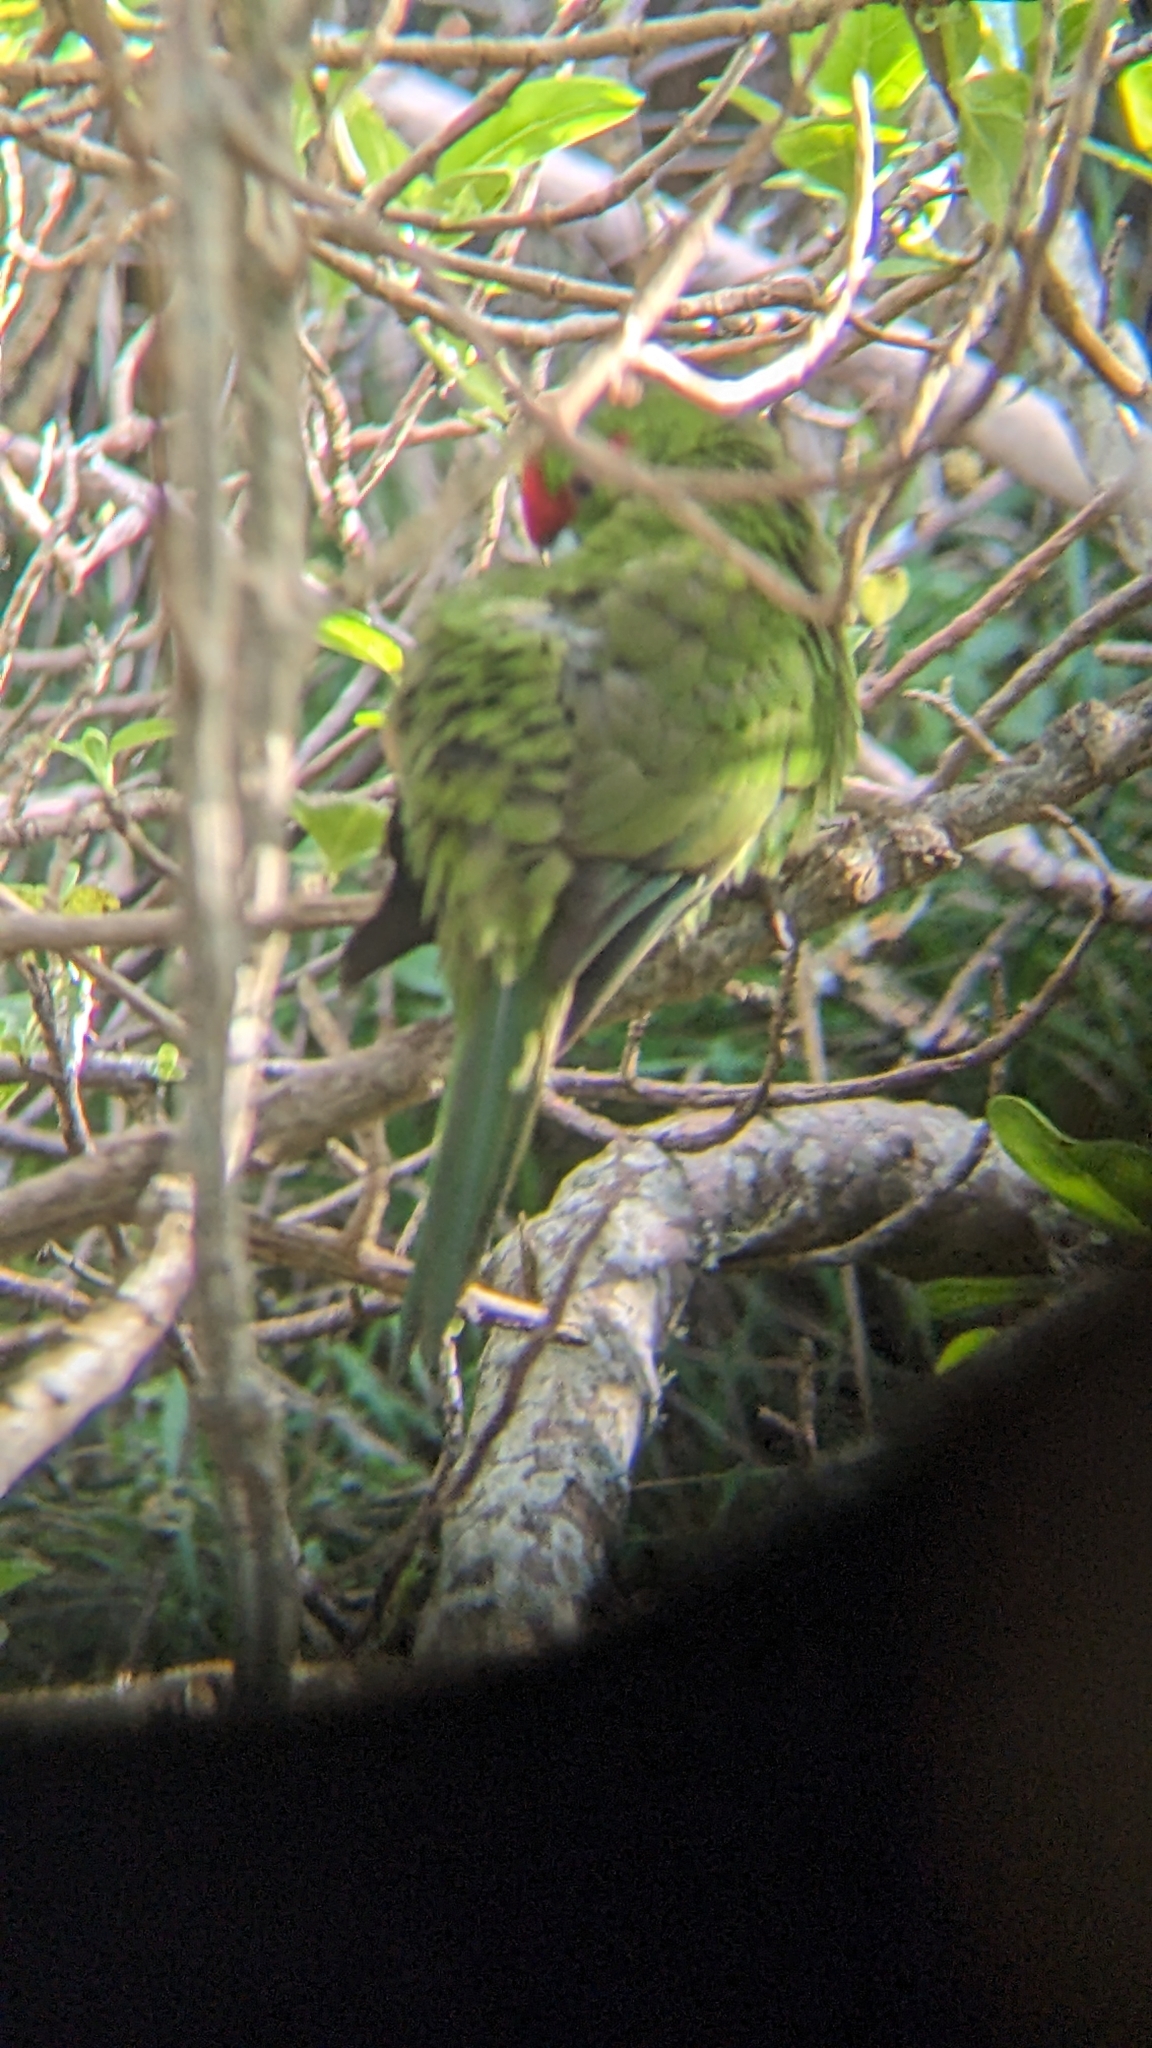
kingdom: Animalia
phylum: Chordata
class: Aves
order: Psittaciformes
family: Psittacidae
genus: Cyanoramphus
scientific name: Cyanoramphus novaezelandiae
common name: Red-fronted parakeet
